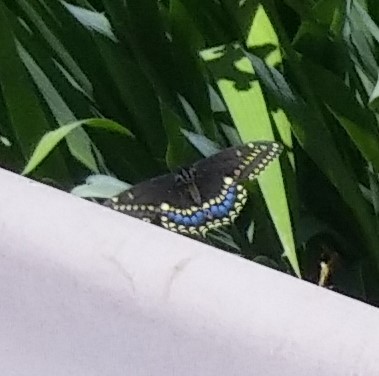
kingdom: Animalia
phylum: Arthropoda
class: Insecta
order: Lepidoptera
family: Papilionidae
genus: Papilio
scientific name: Papilio polyxenes
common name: Black swallowtail
